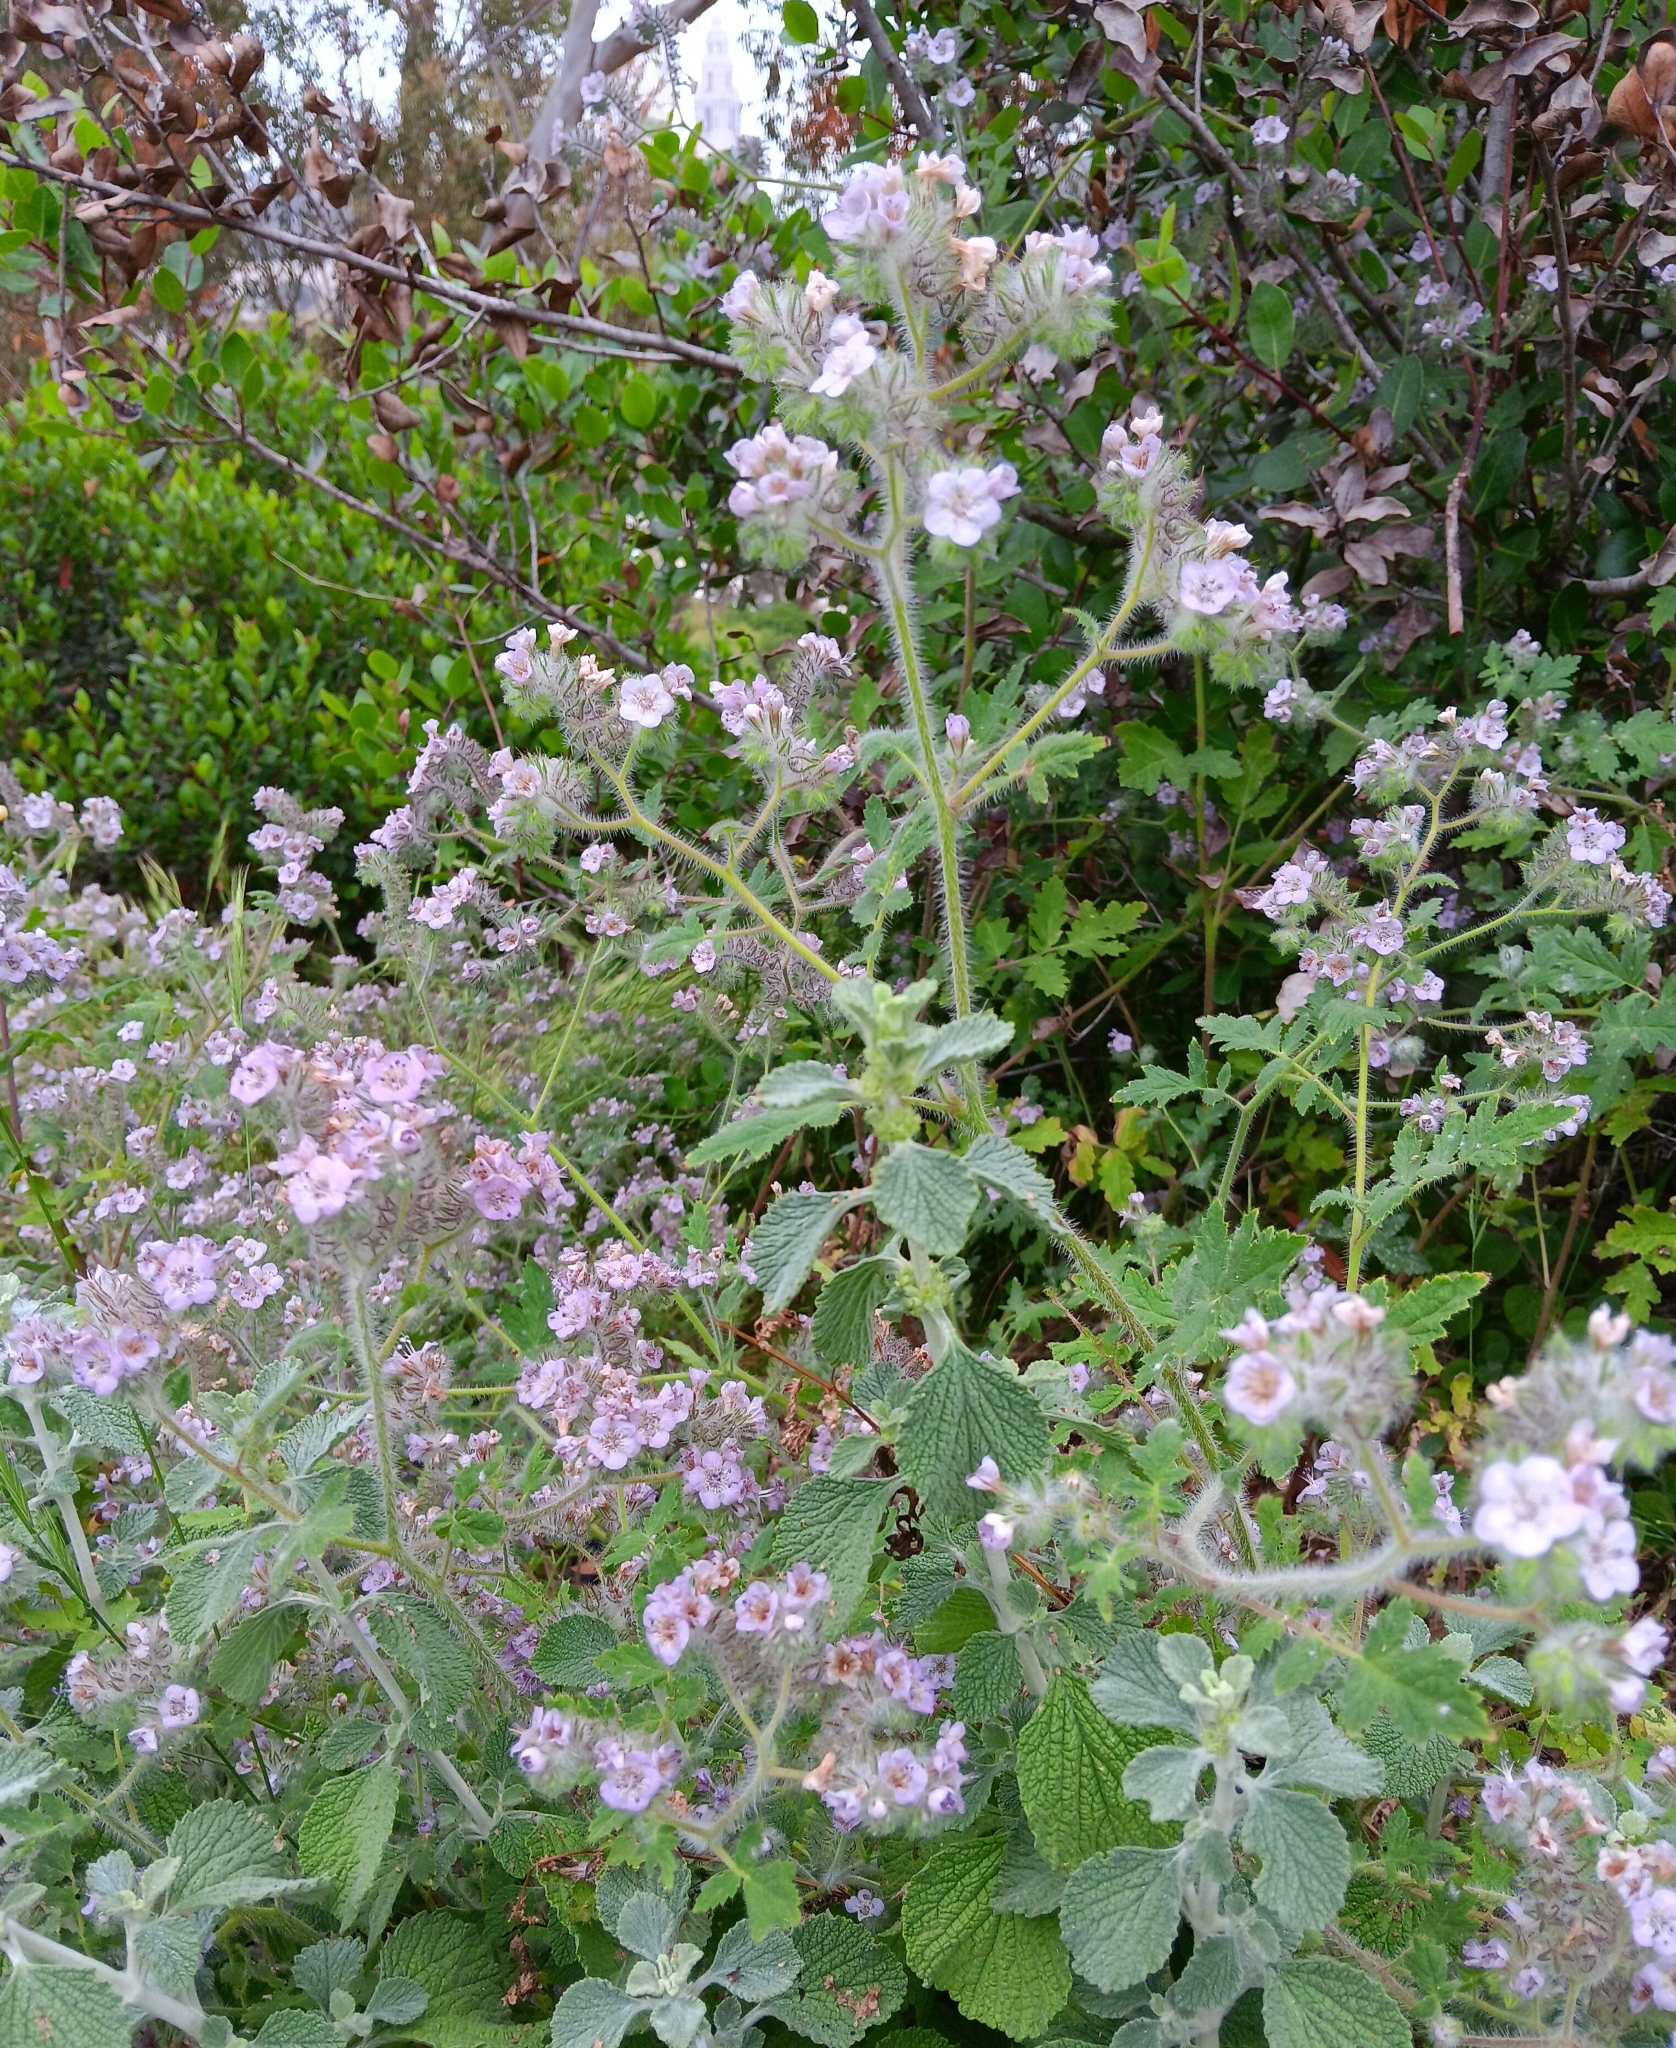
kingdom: Plantae
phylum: Tracheophyta
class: Magnoliopsida
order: Boraginales
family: Hydrophyllaceae
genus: Phacelia
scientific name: Phacelia cicutaria
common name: Caterpillar phacelia
